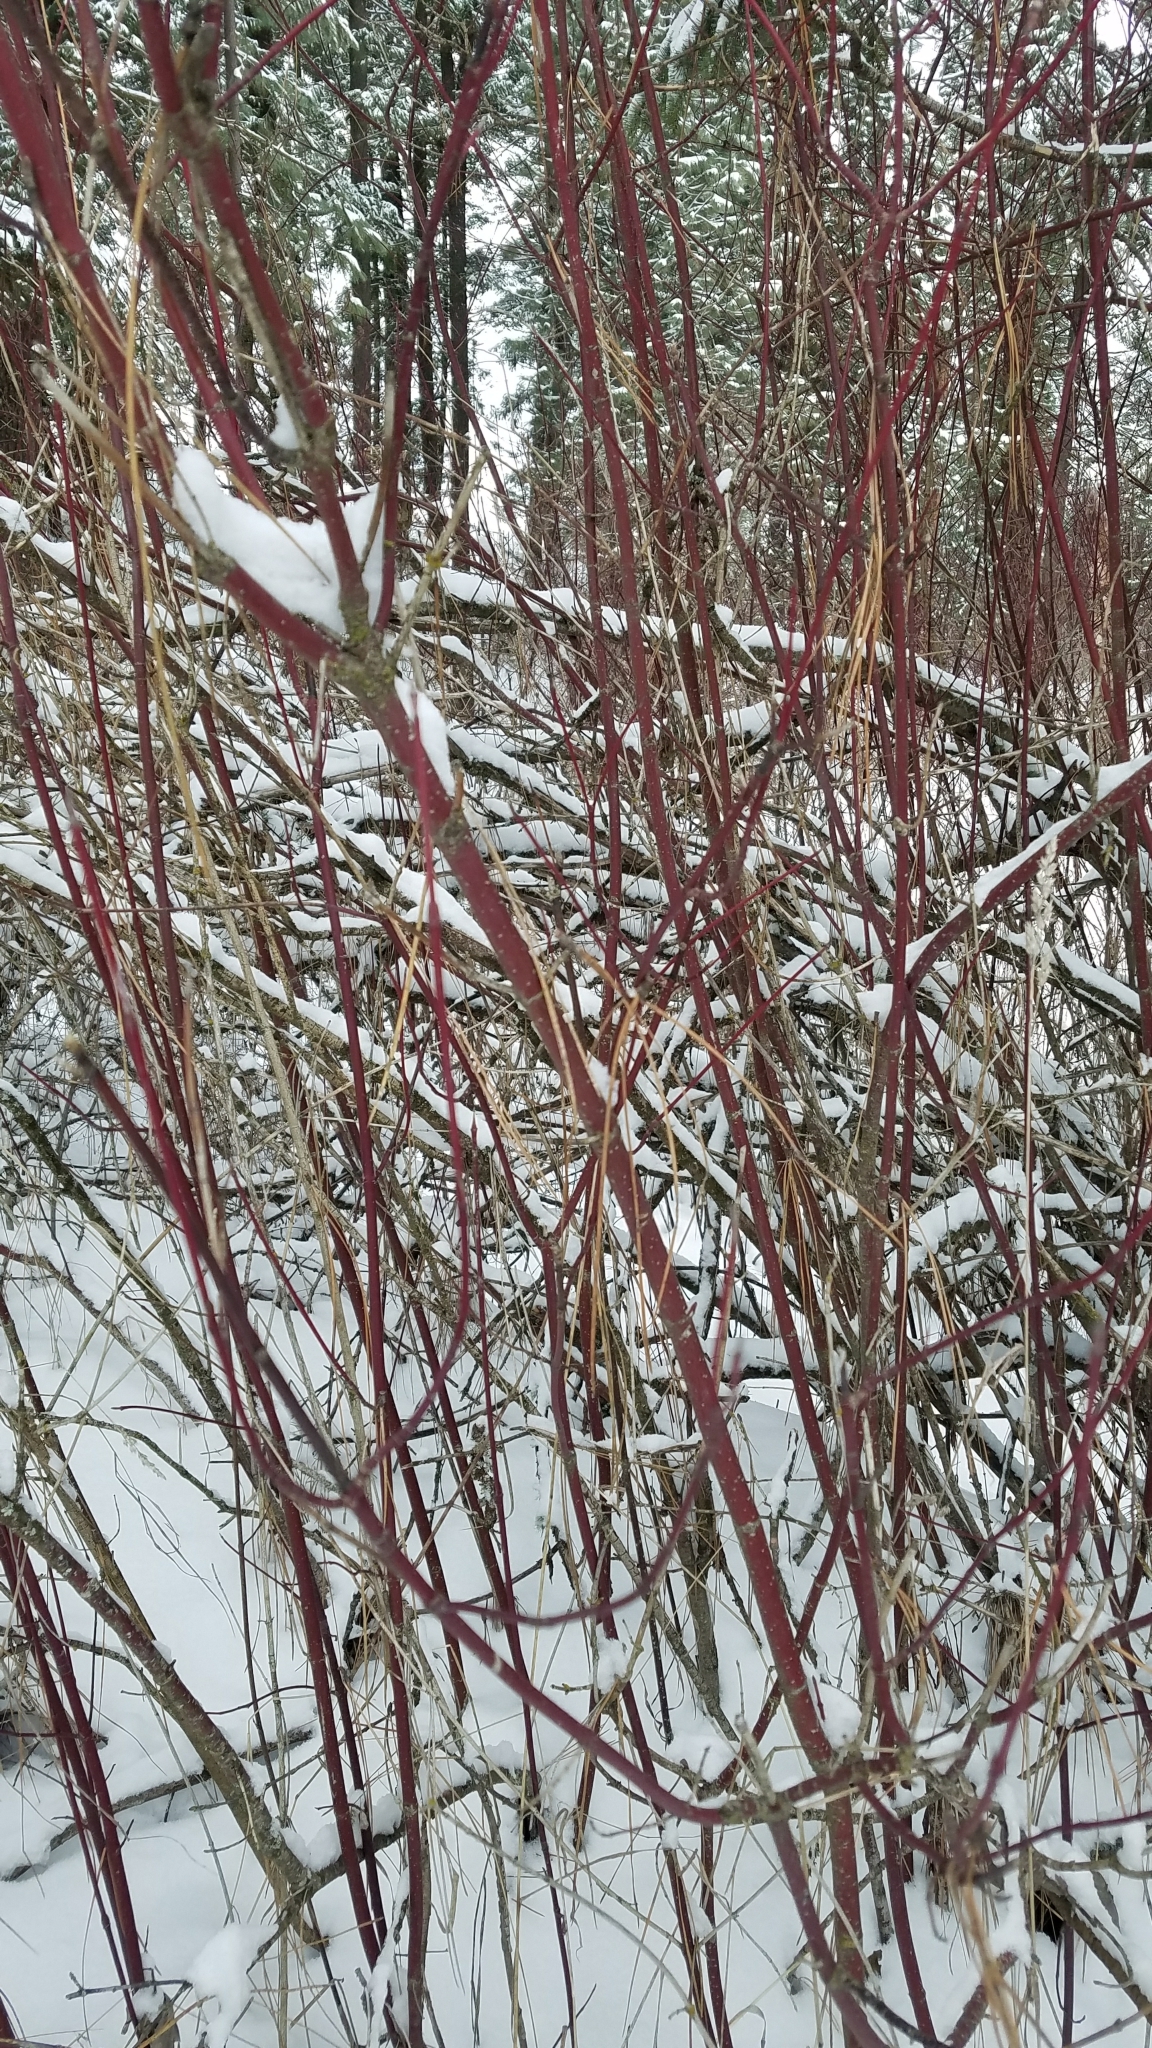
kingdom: Plantae
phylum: Tracheophyta
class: Magnoliopsida
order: Cornales
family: Cornaceae
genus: Cornus
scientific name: Cornus sericea
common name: Red-osier dogwood
